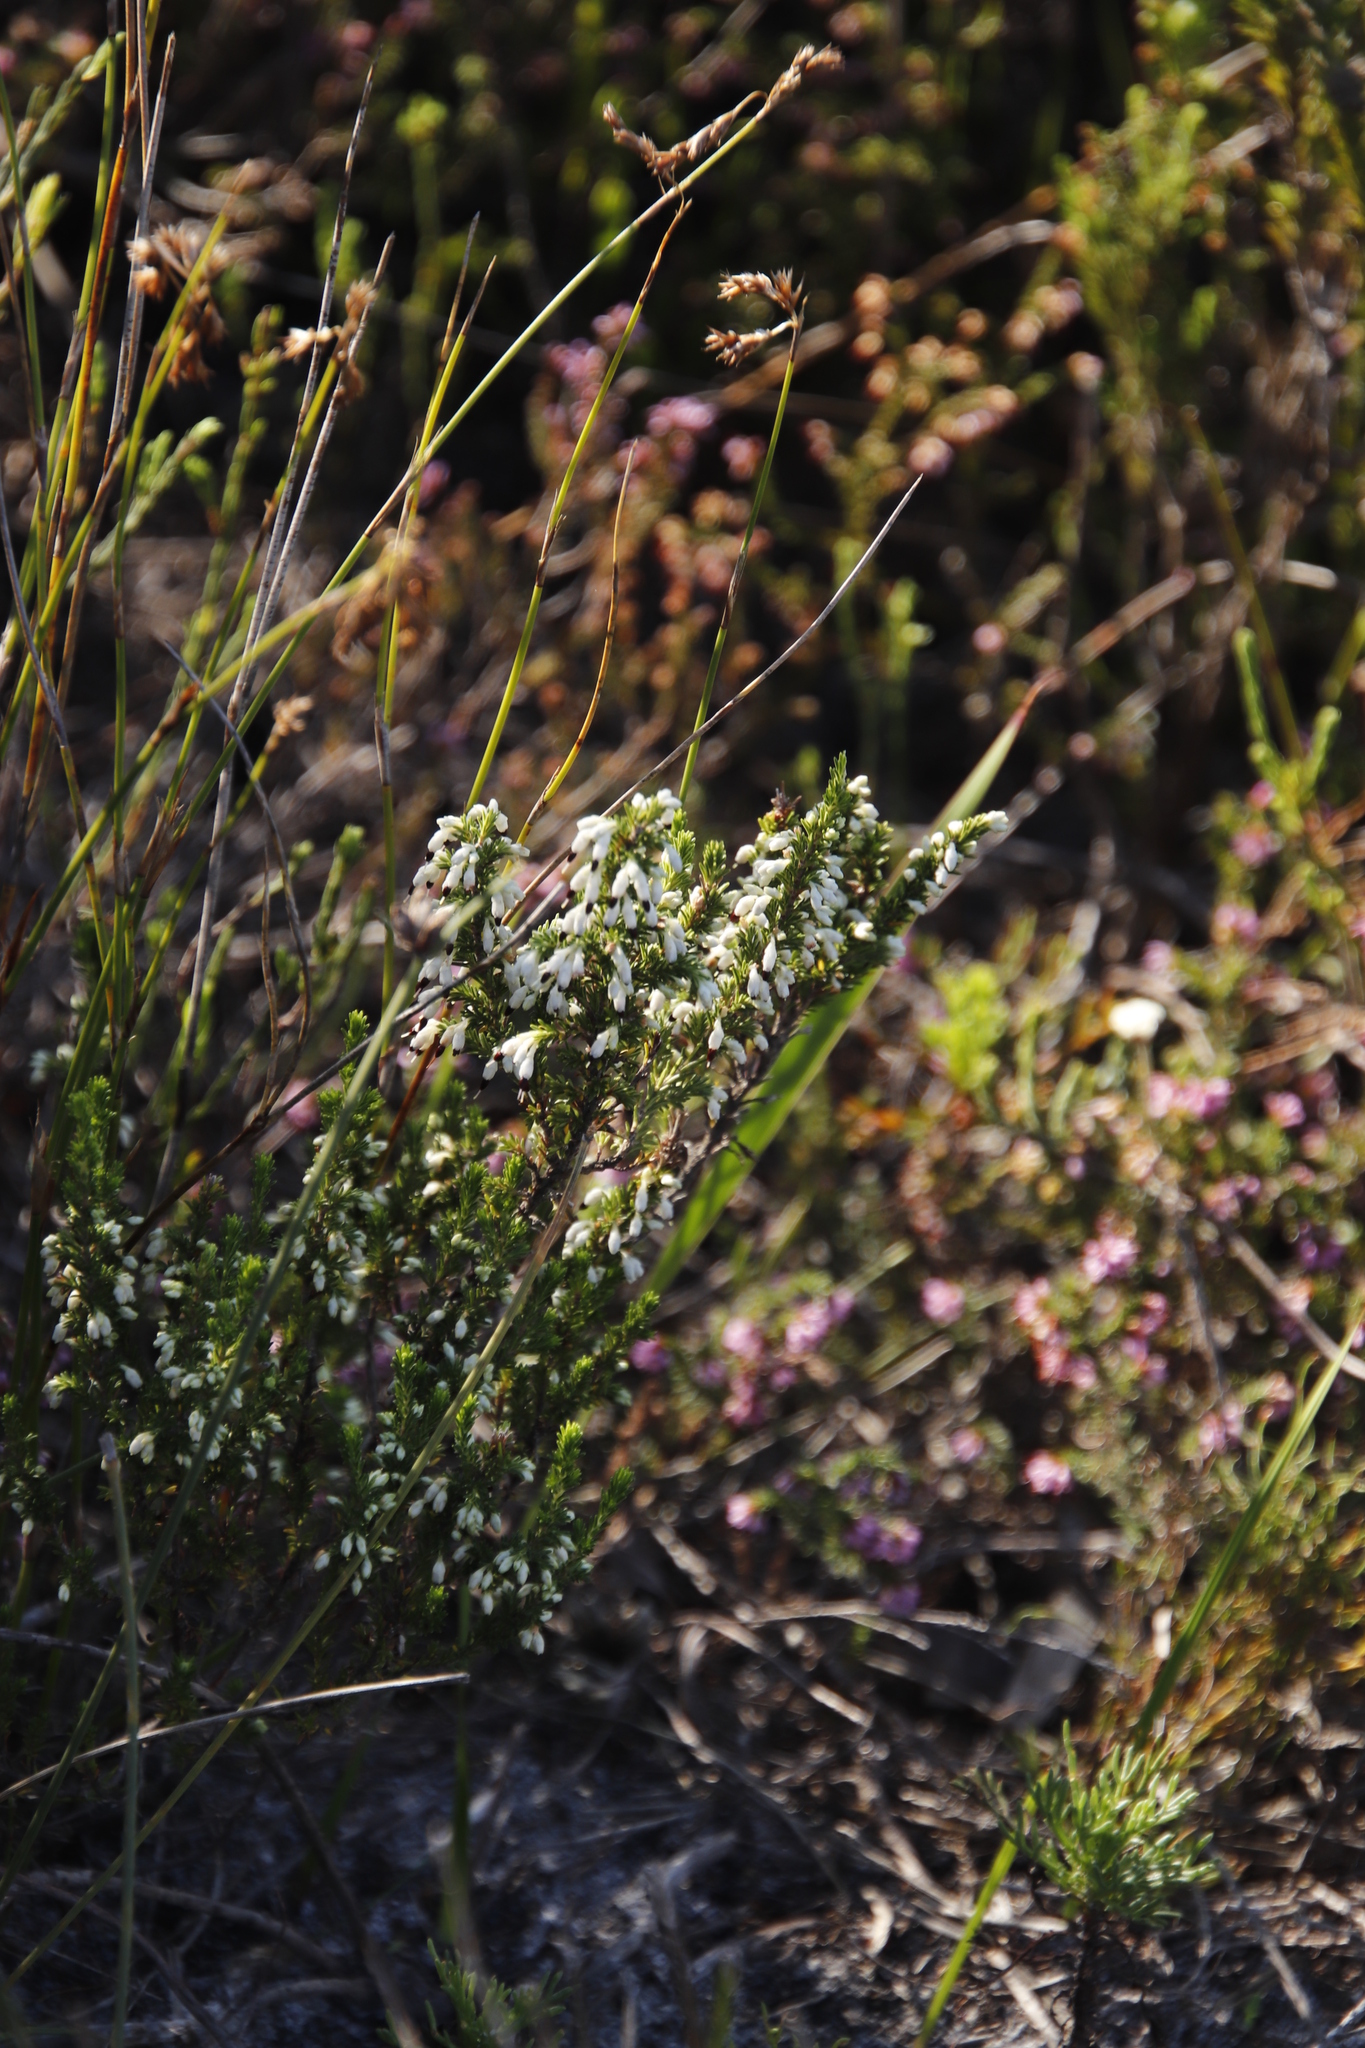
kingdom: Plantae
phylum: Tracheophyta
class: Magnoliopsida
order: Ericales
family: Ericaceae
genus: Erica
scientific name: Erica imbricata
